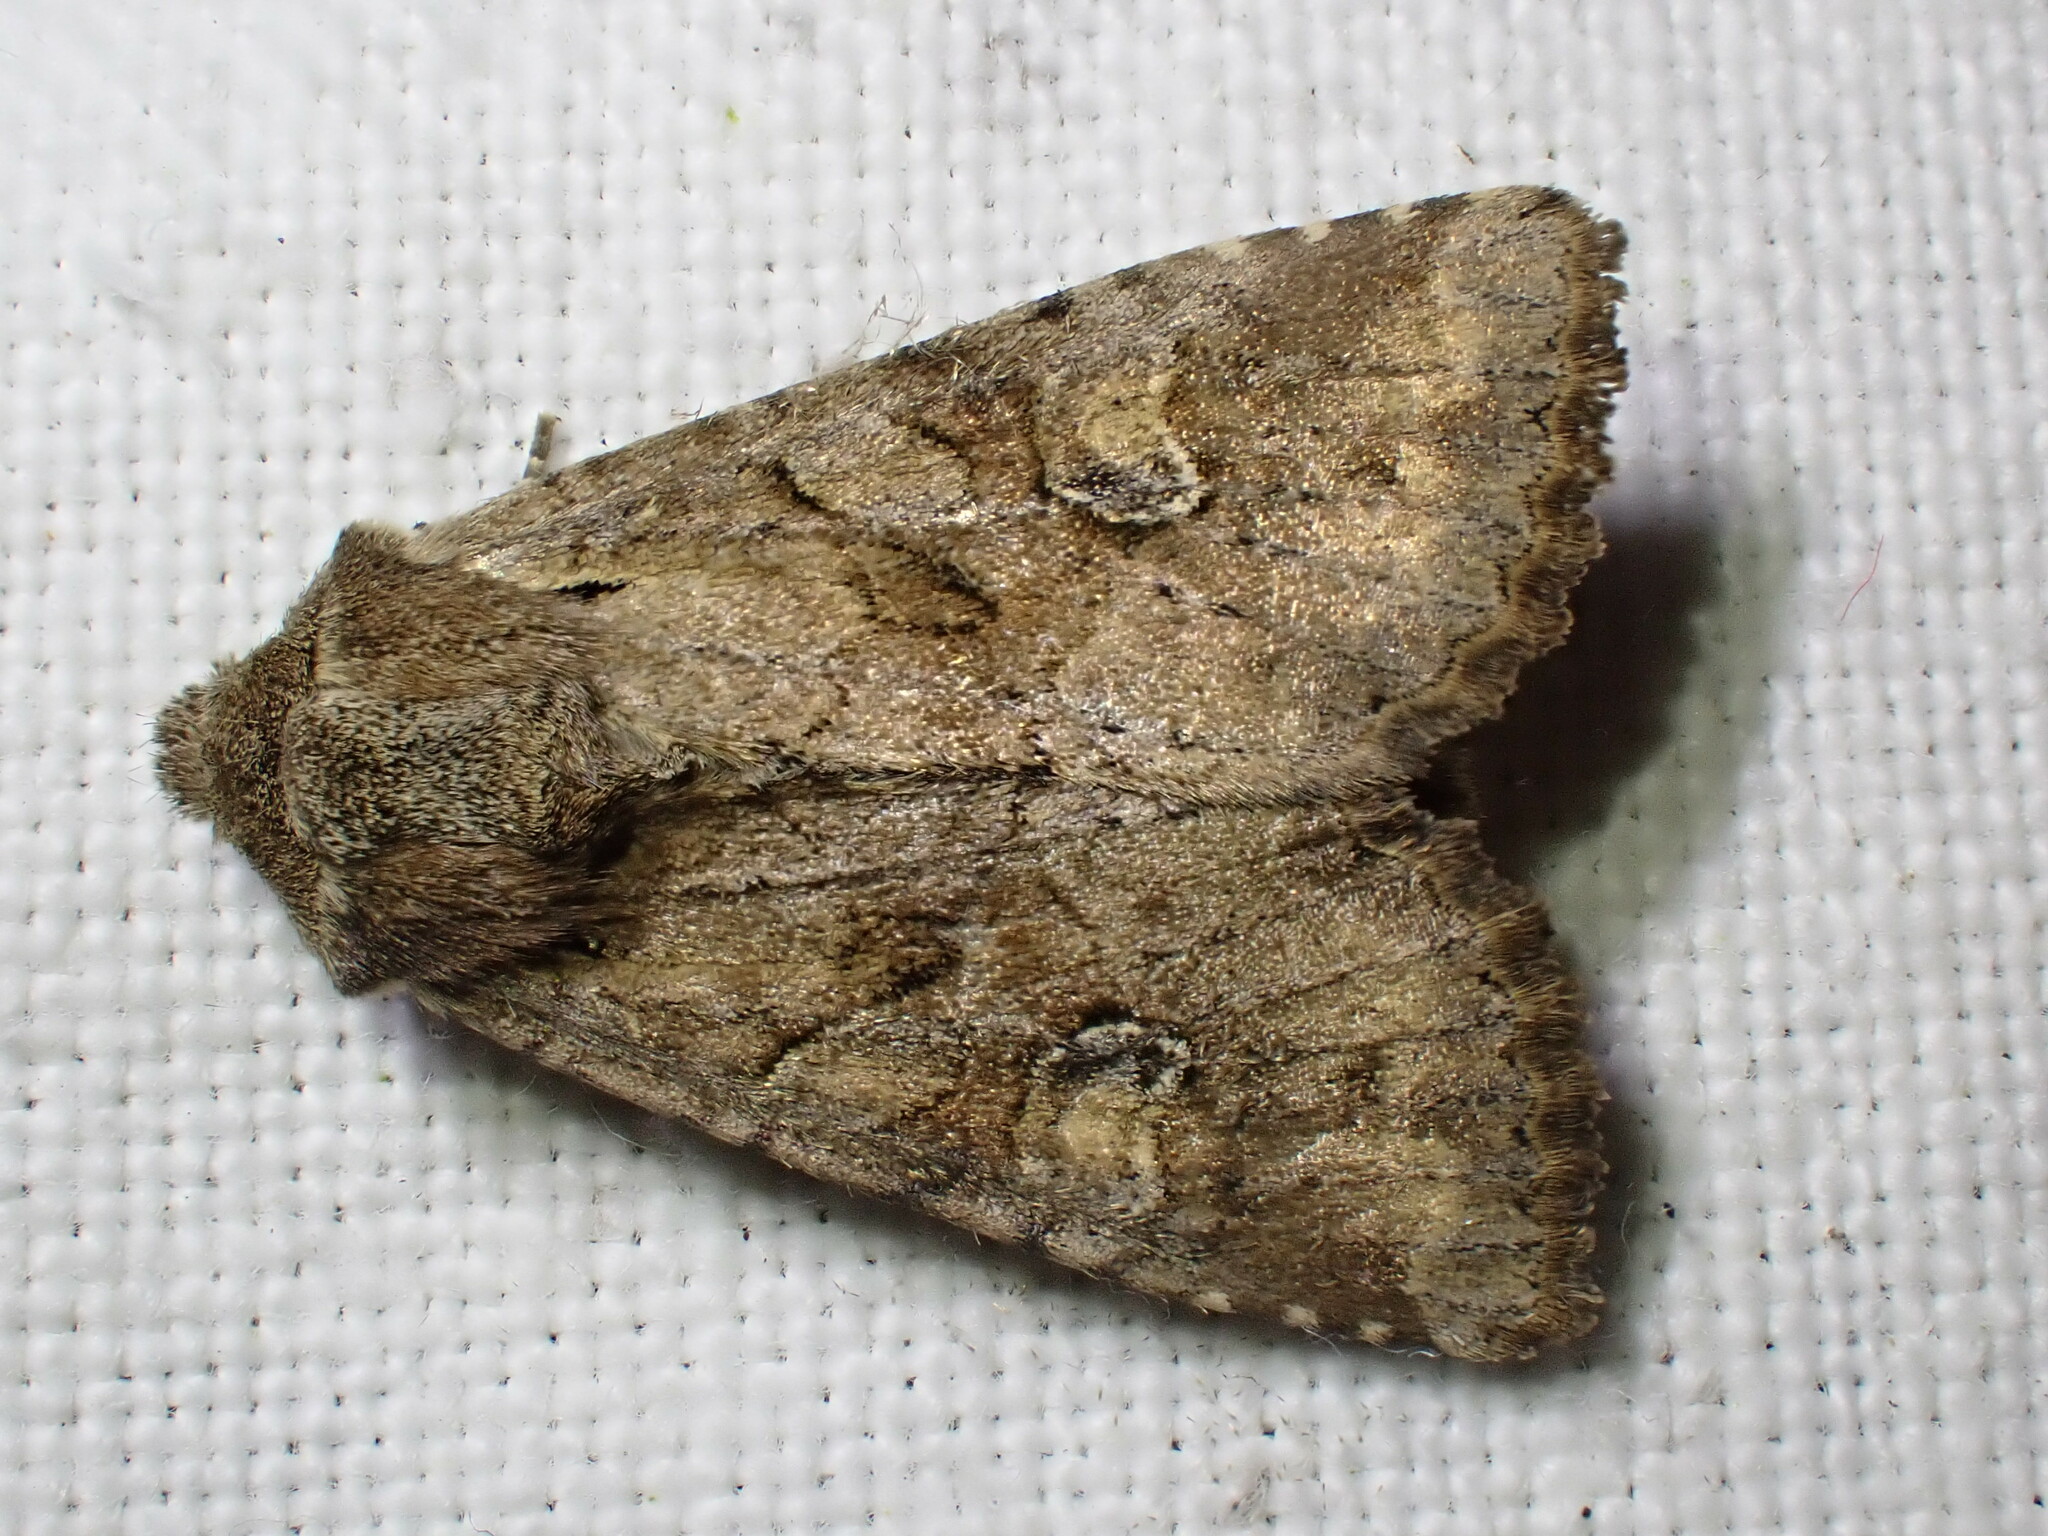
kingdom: Animalia
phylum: Arthropoda
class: Insecta
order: Lepidoptera
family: Noctuidae
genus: Apamea
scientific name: Apamea sordens
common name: Rustic shoulder-knot
